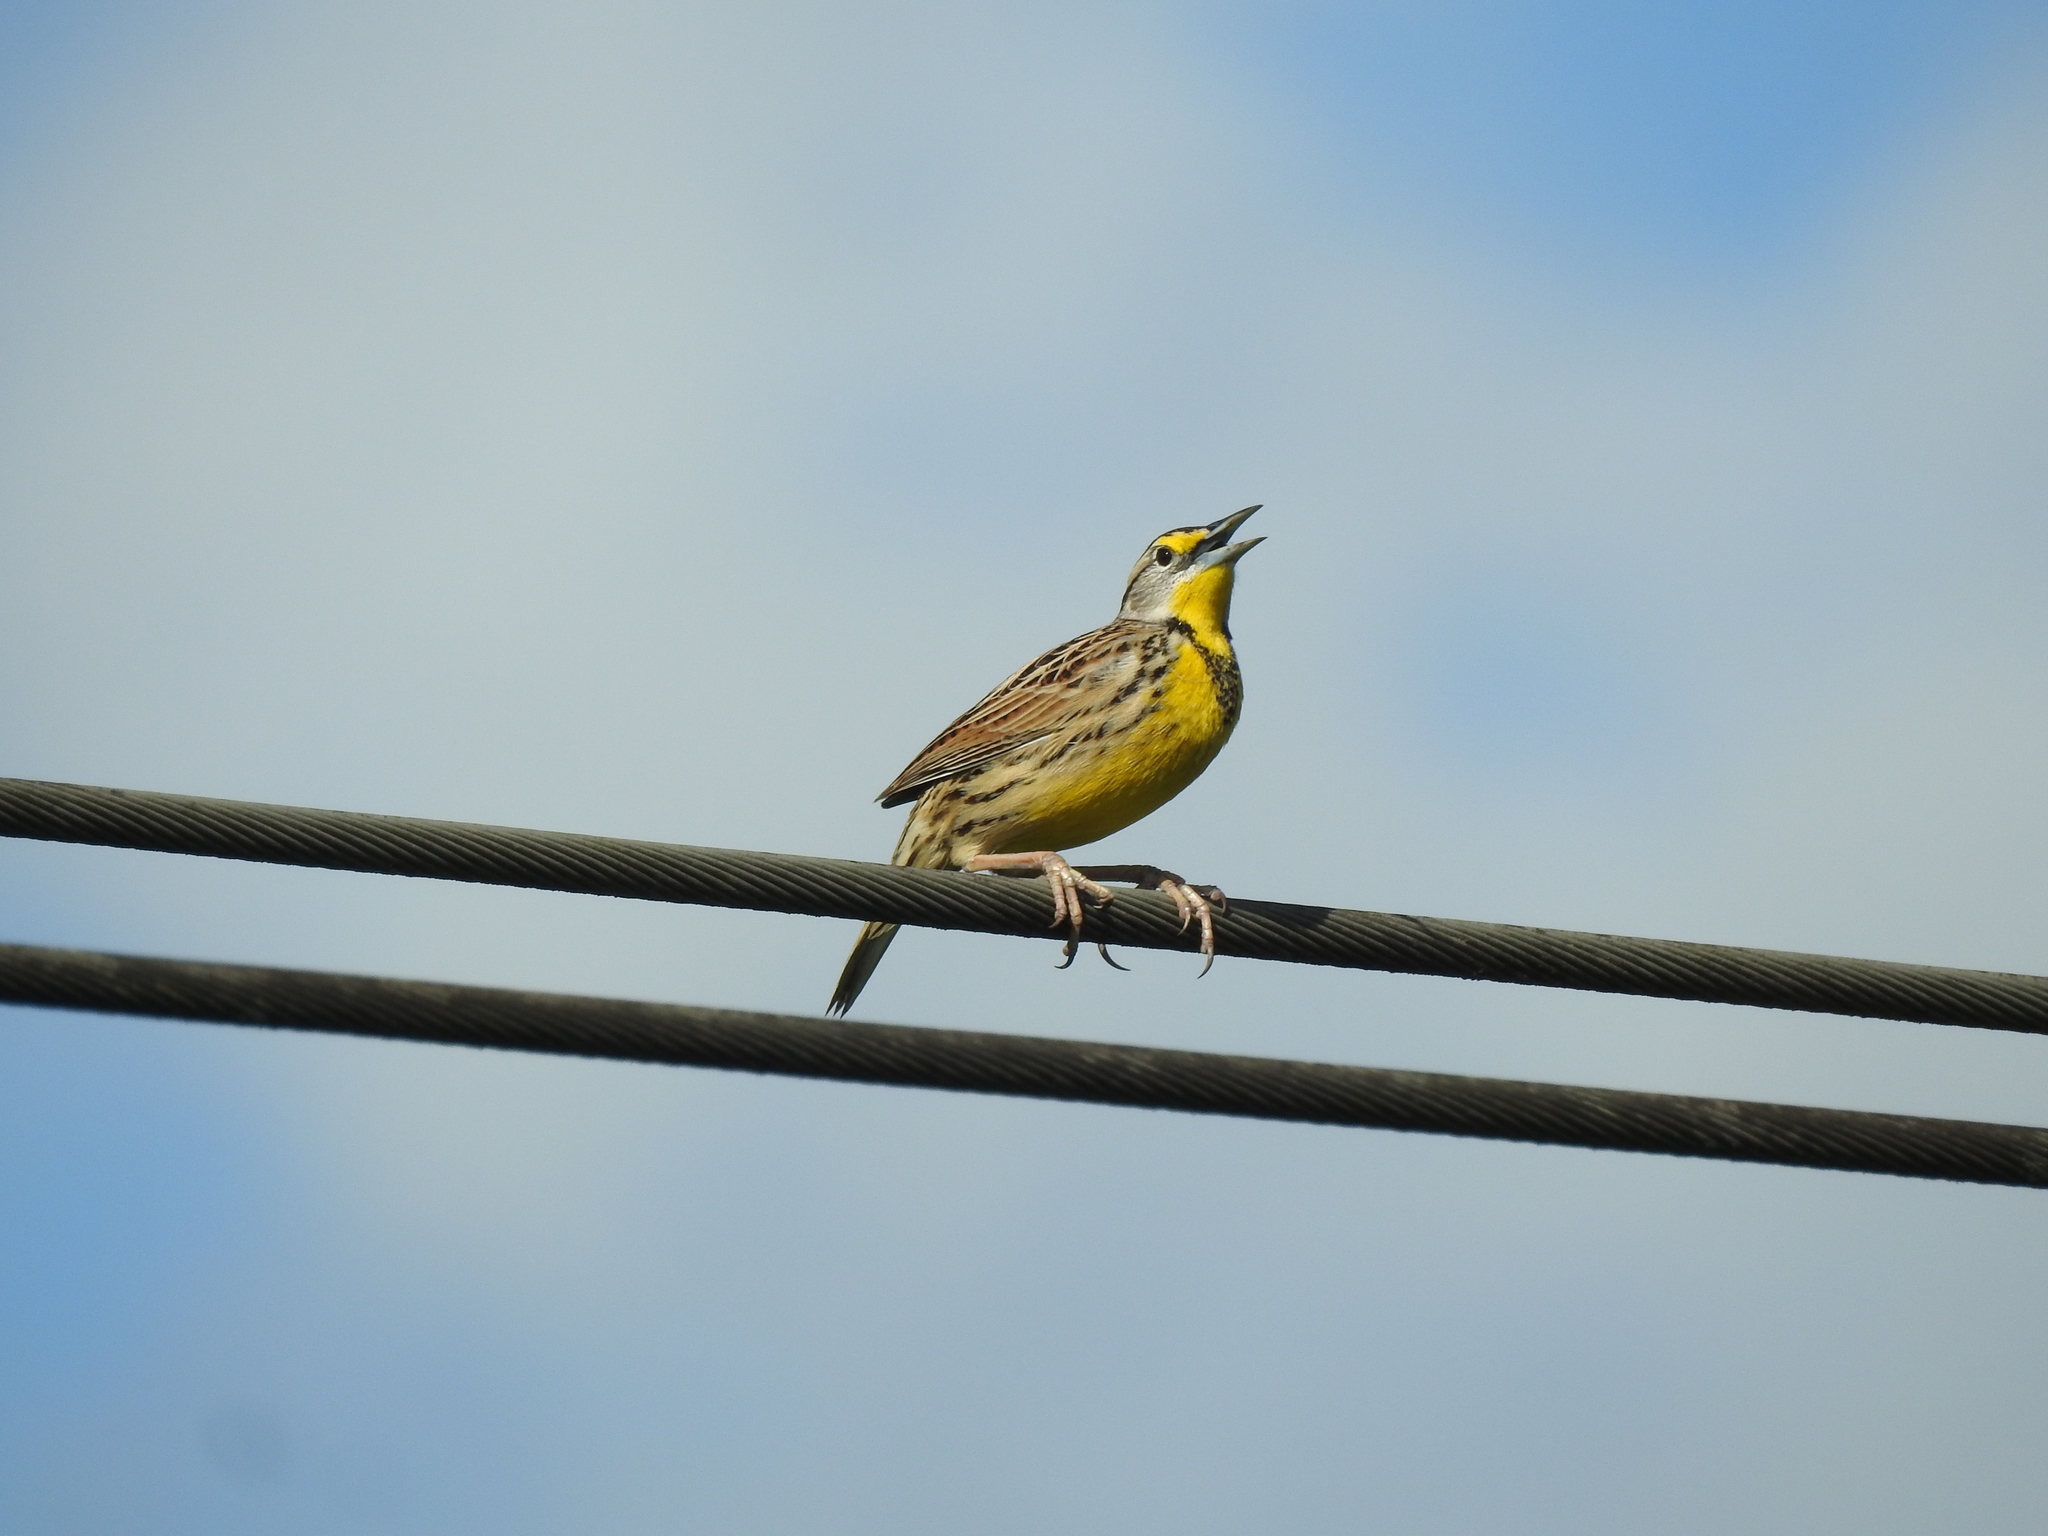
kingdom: Animalia
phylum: Chordata
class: Aves
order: Passeriformes
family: Icteridae
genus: Sturnella
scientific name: Sturnella magna
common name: Eastern meadowlark
